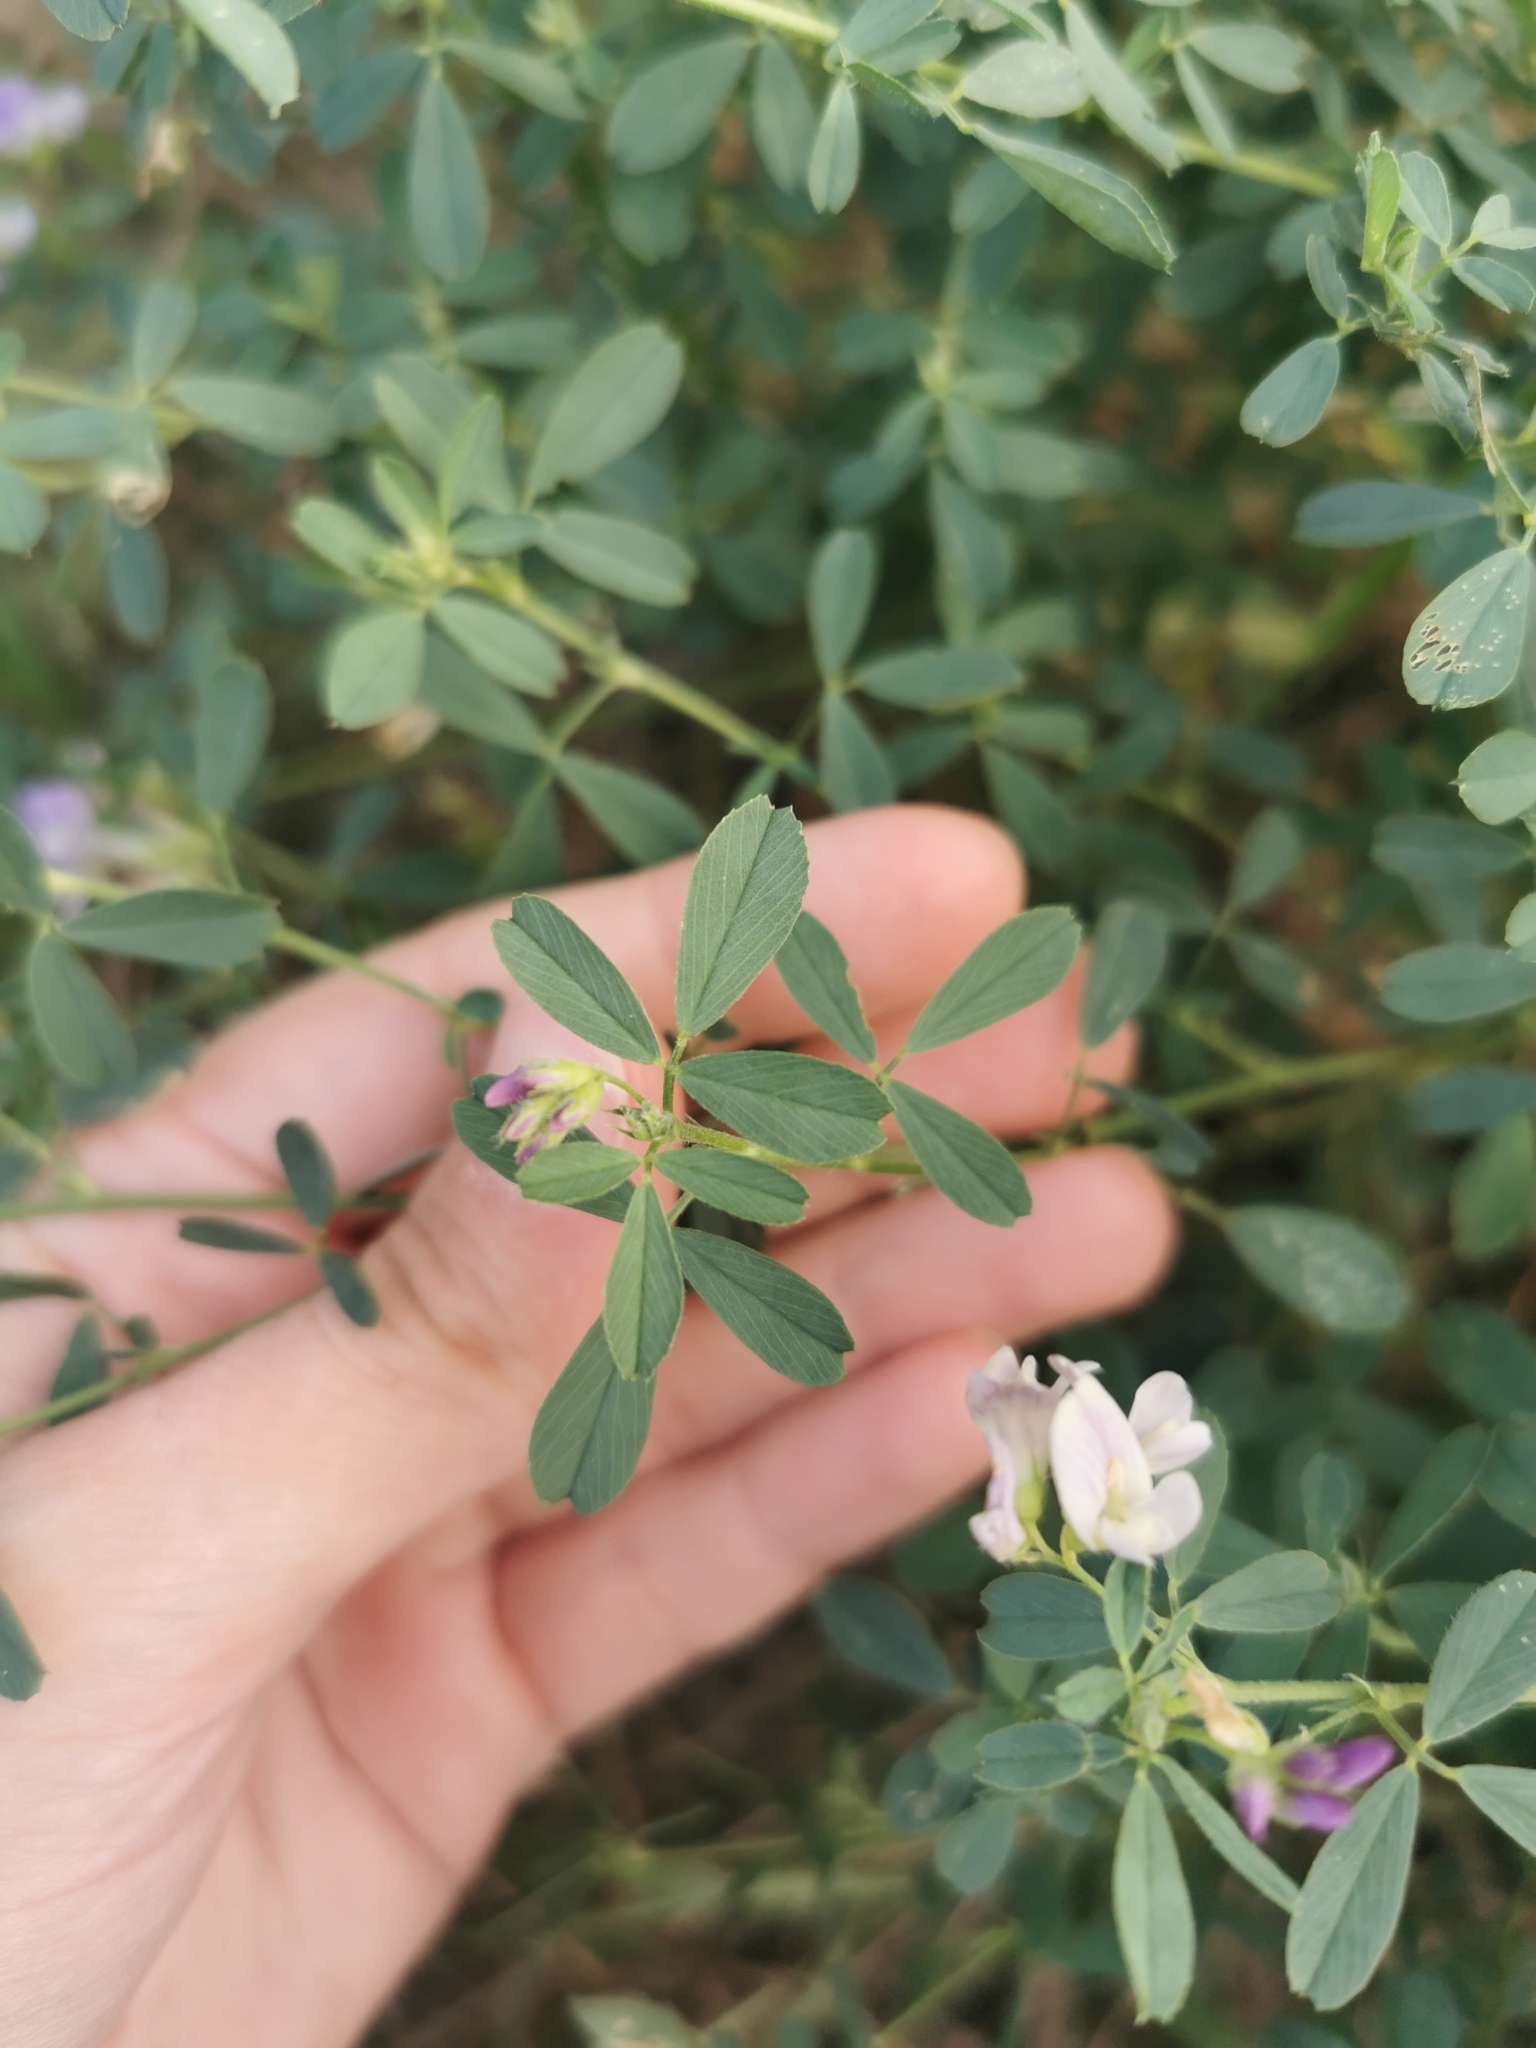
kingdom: Plantae
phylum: Tracheophyta
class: Magnoliopsida
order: Fabales
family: Fabaceae
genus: Medicago
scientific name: Medicago sativa
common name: Alfalfa
